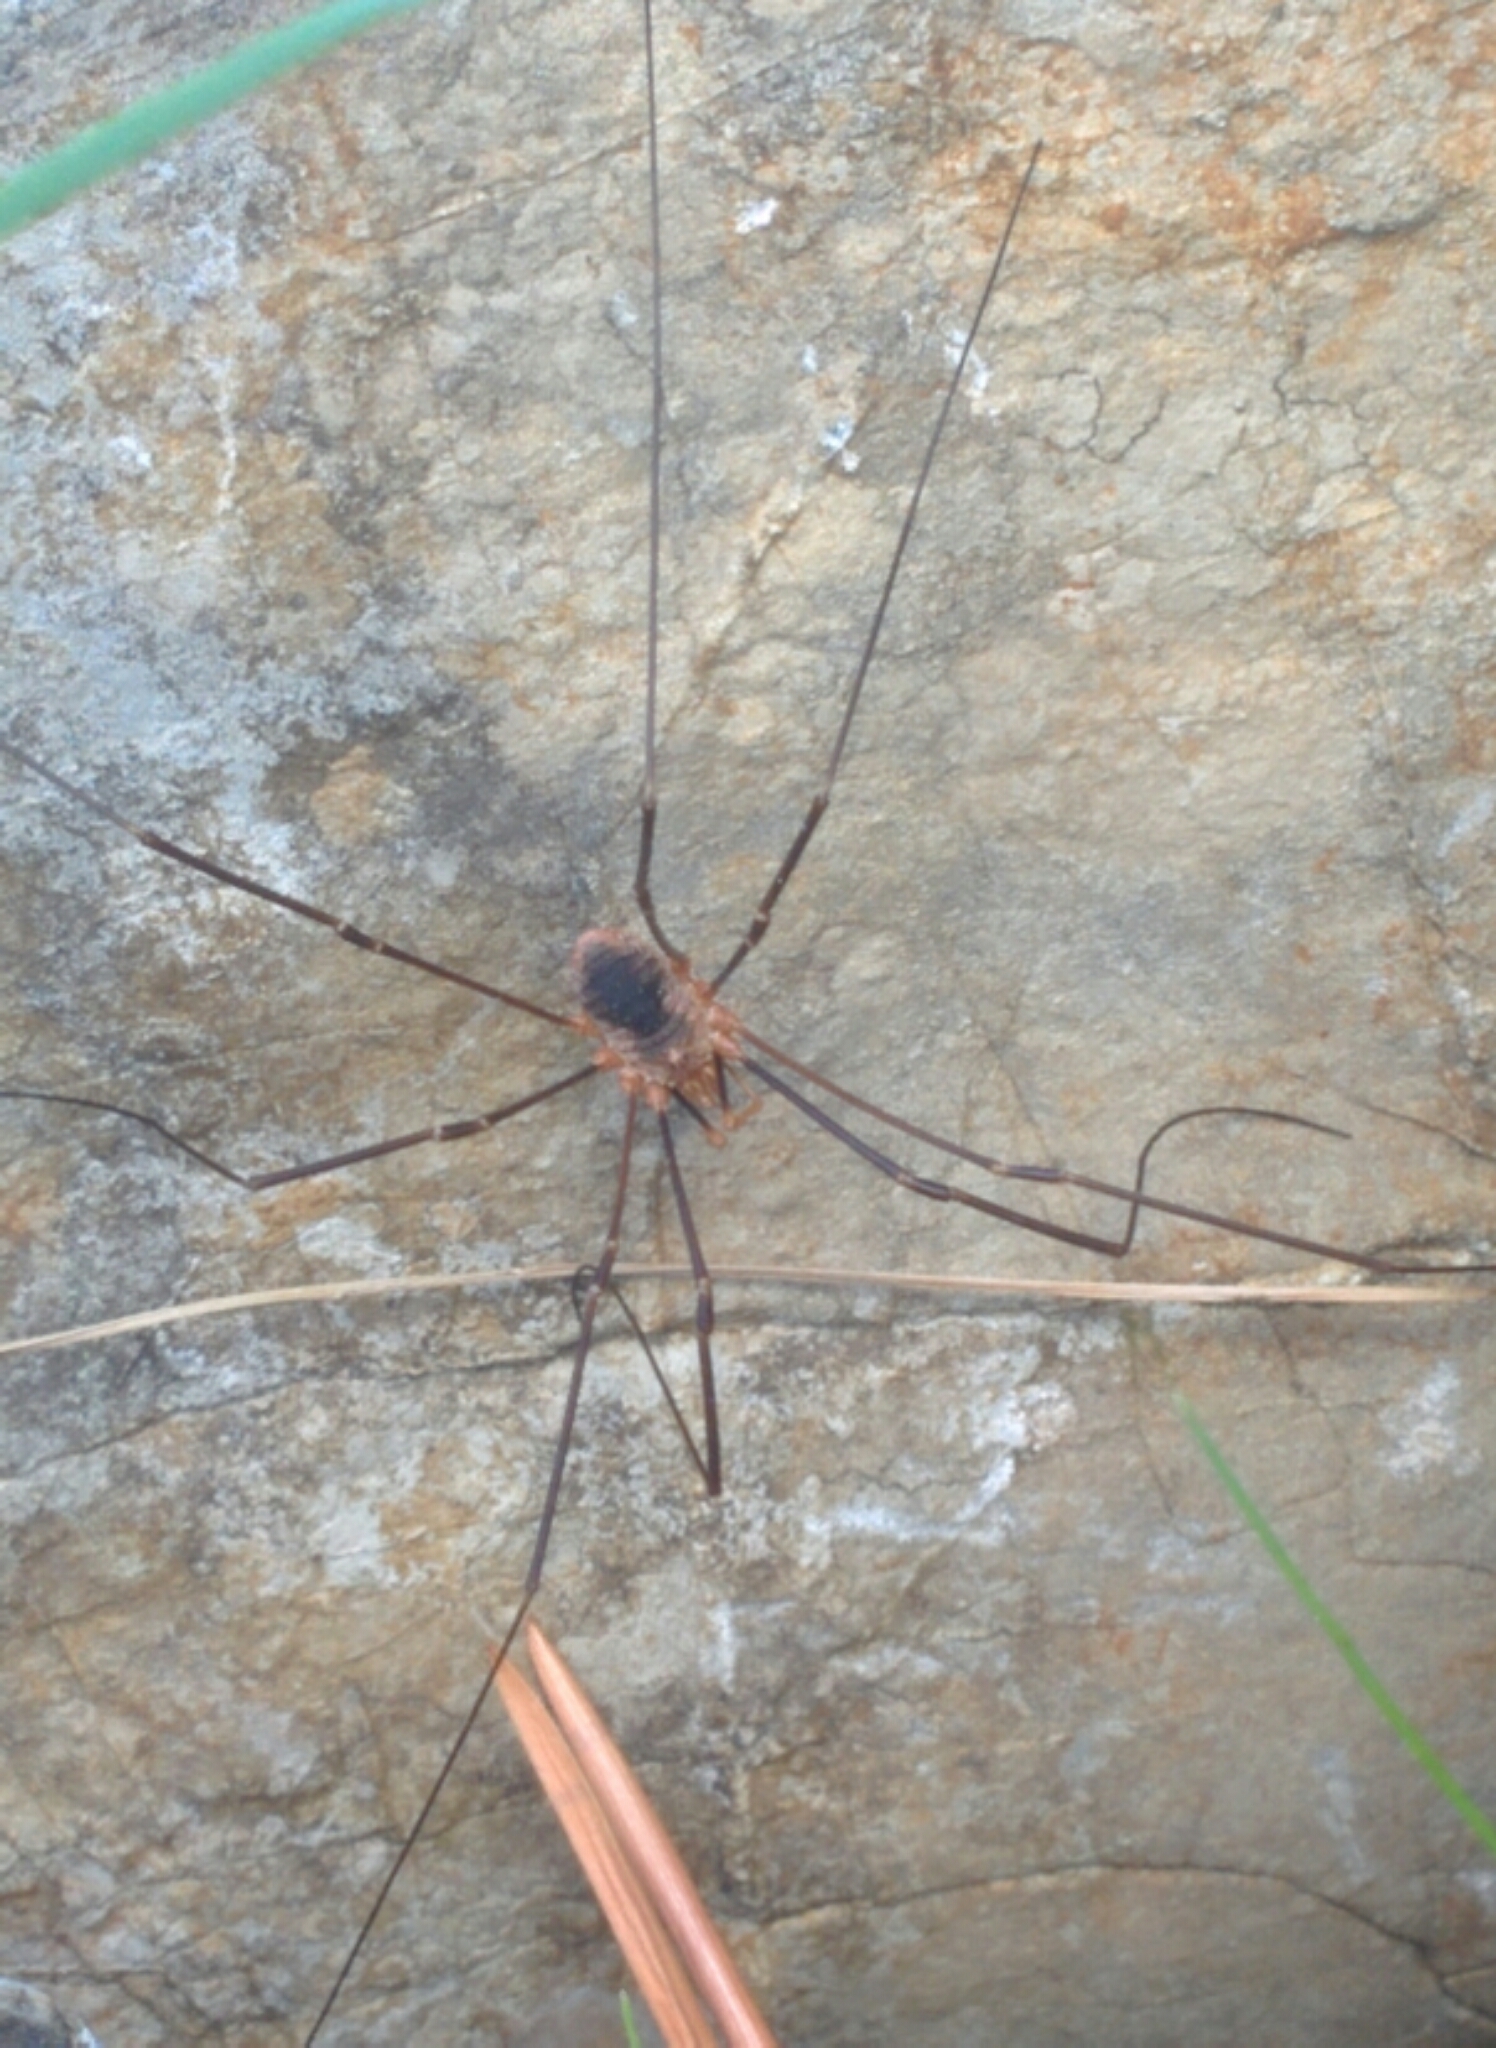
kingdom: Animalia
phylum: Arthropoda
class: Arachnida
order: Opiliones
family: Phalangiidae
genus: Phalangium
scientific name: Phalangium opilio
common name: Daddy longleg
